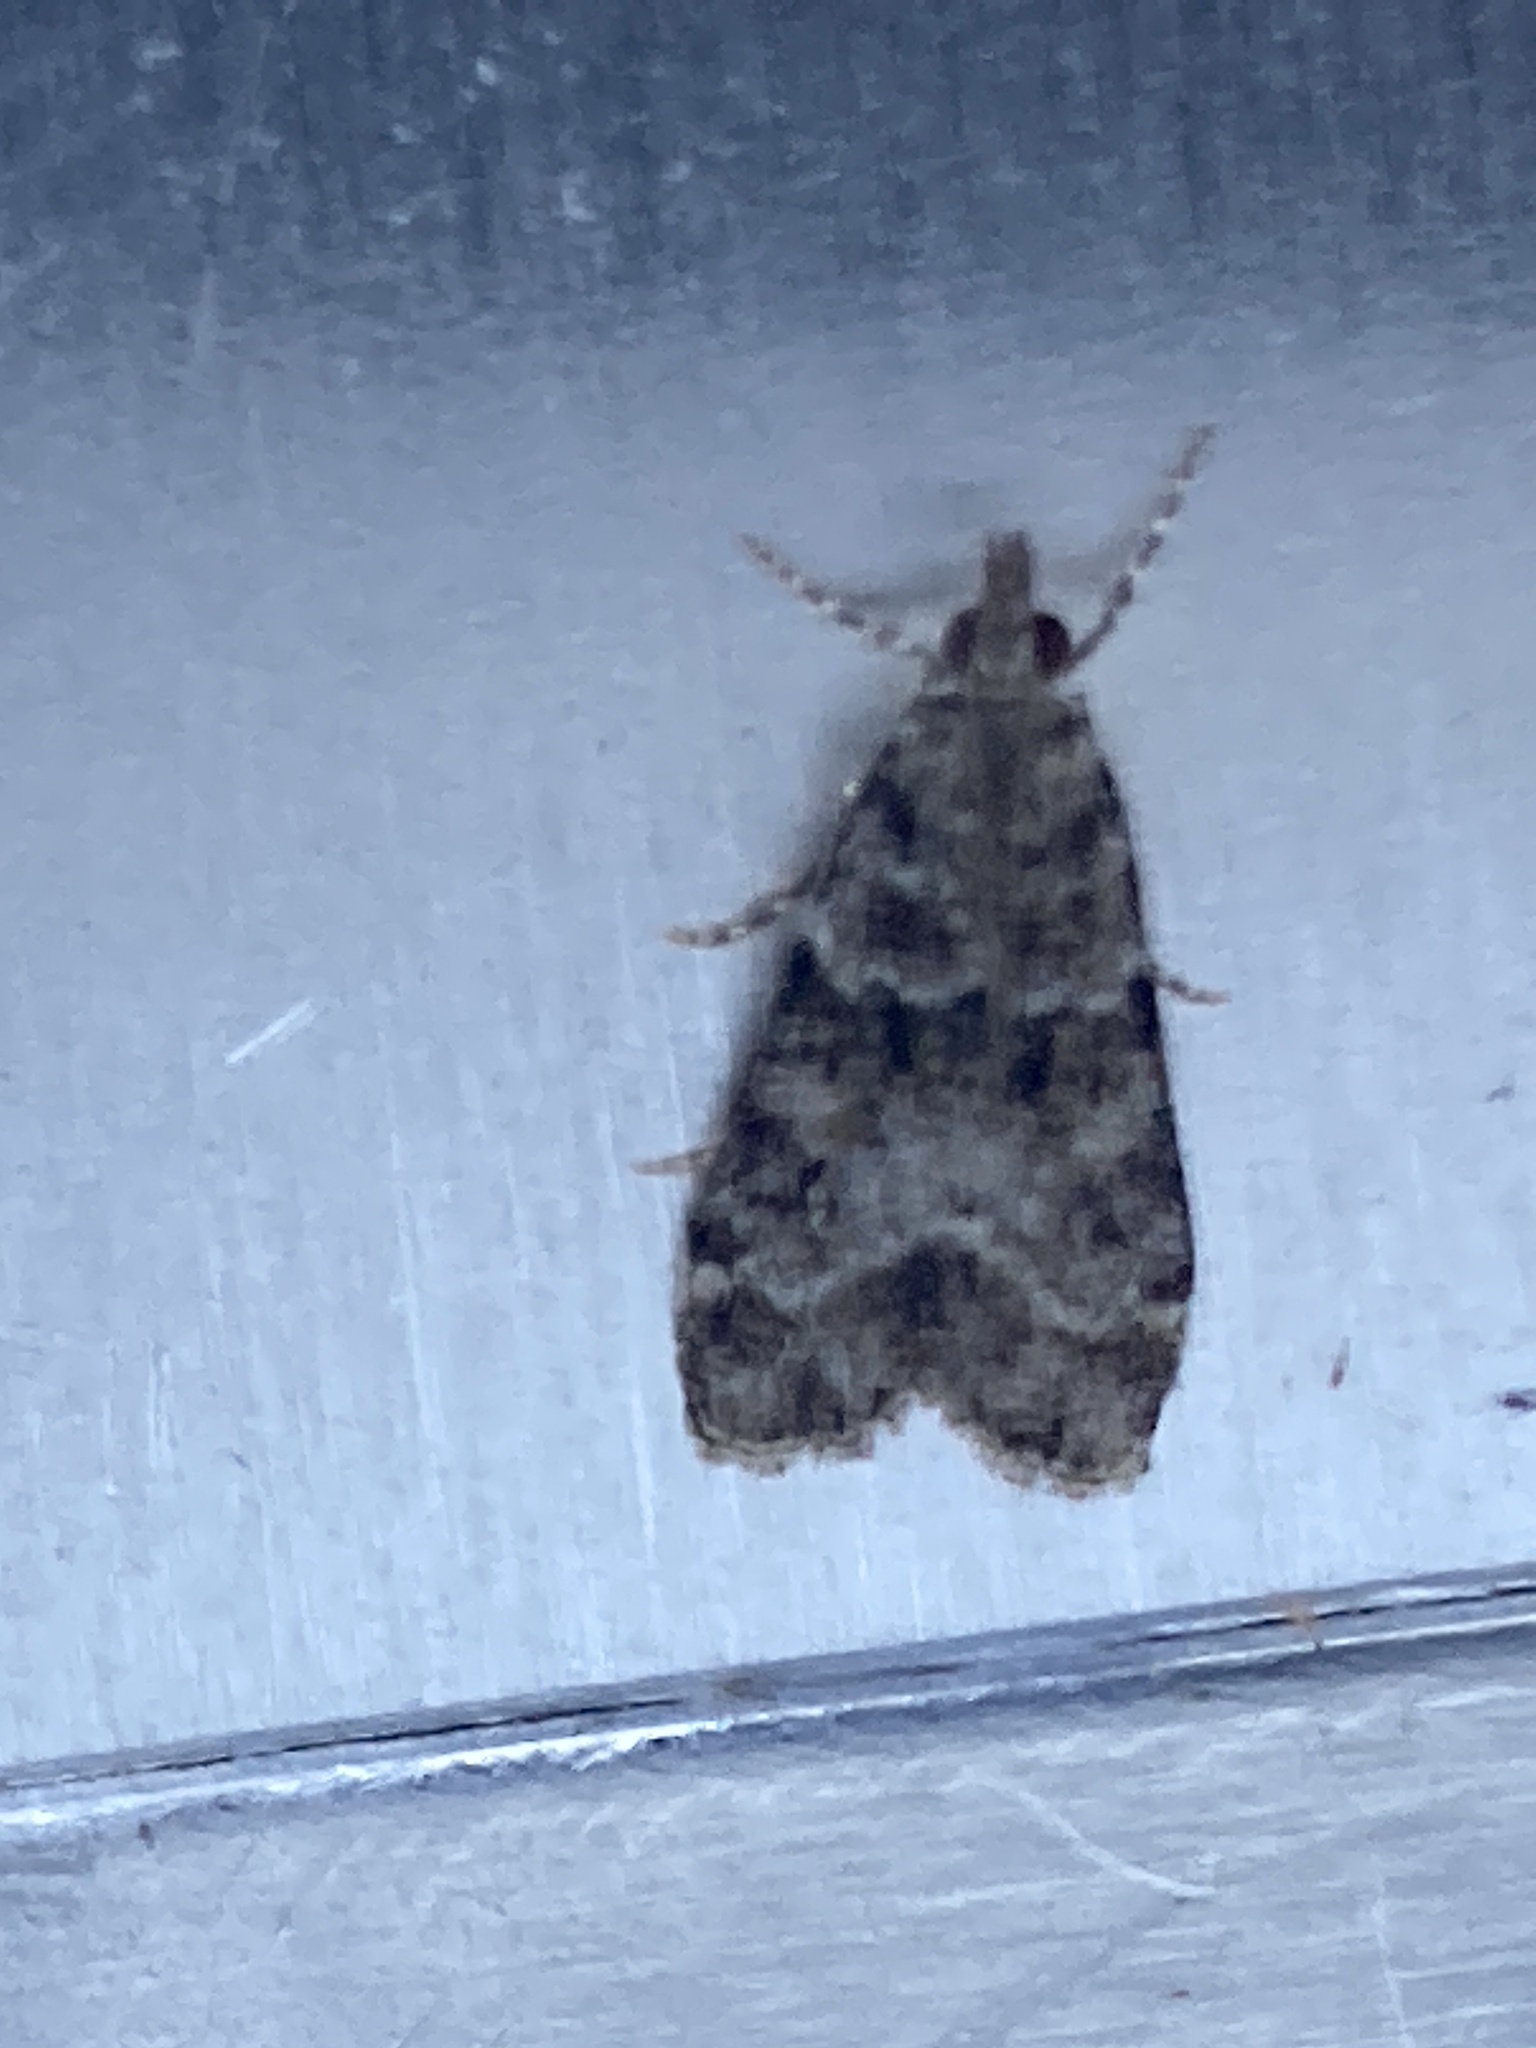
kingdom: Animalia
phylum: Arthropoda
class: Insecta
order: Lepidoptera
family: Crambidae
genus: Eudonia
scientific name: Eudonia mercurella
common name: Small grey
